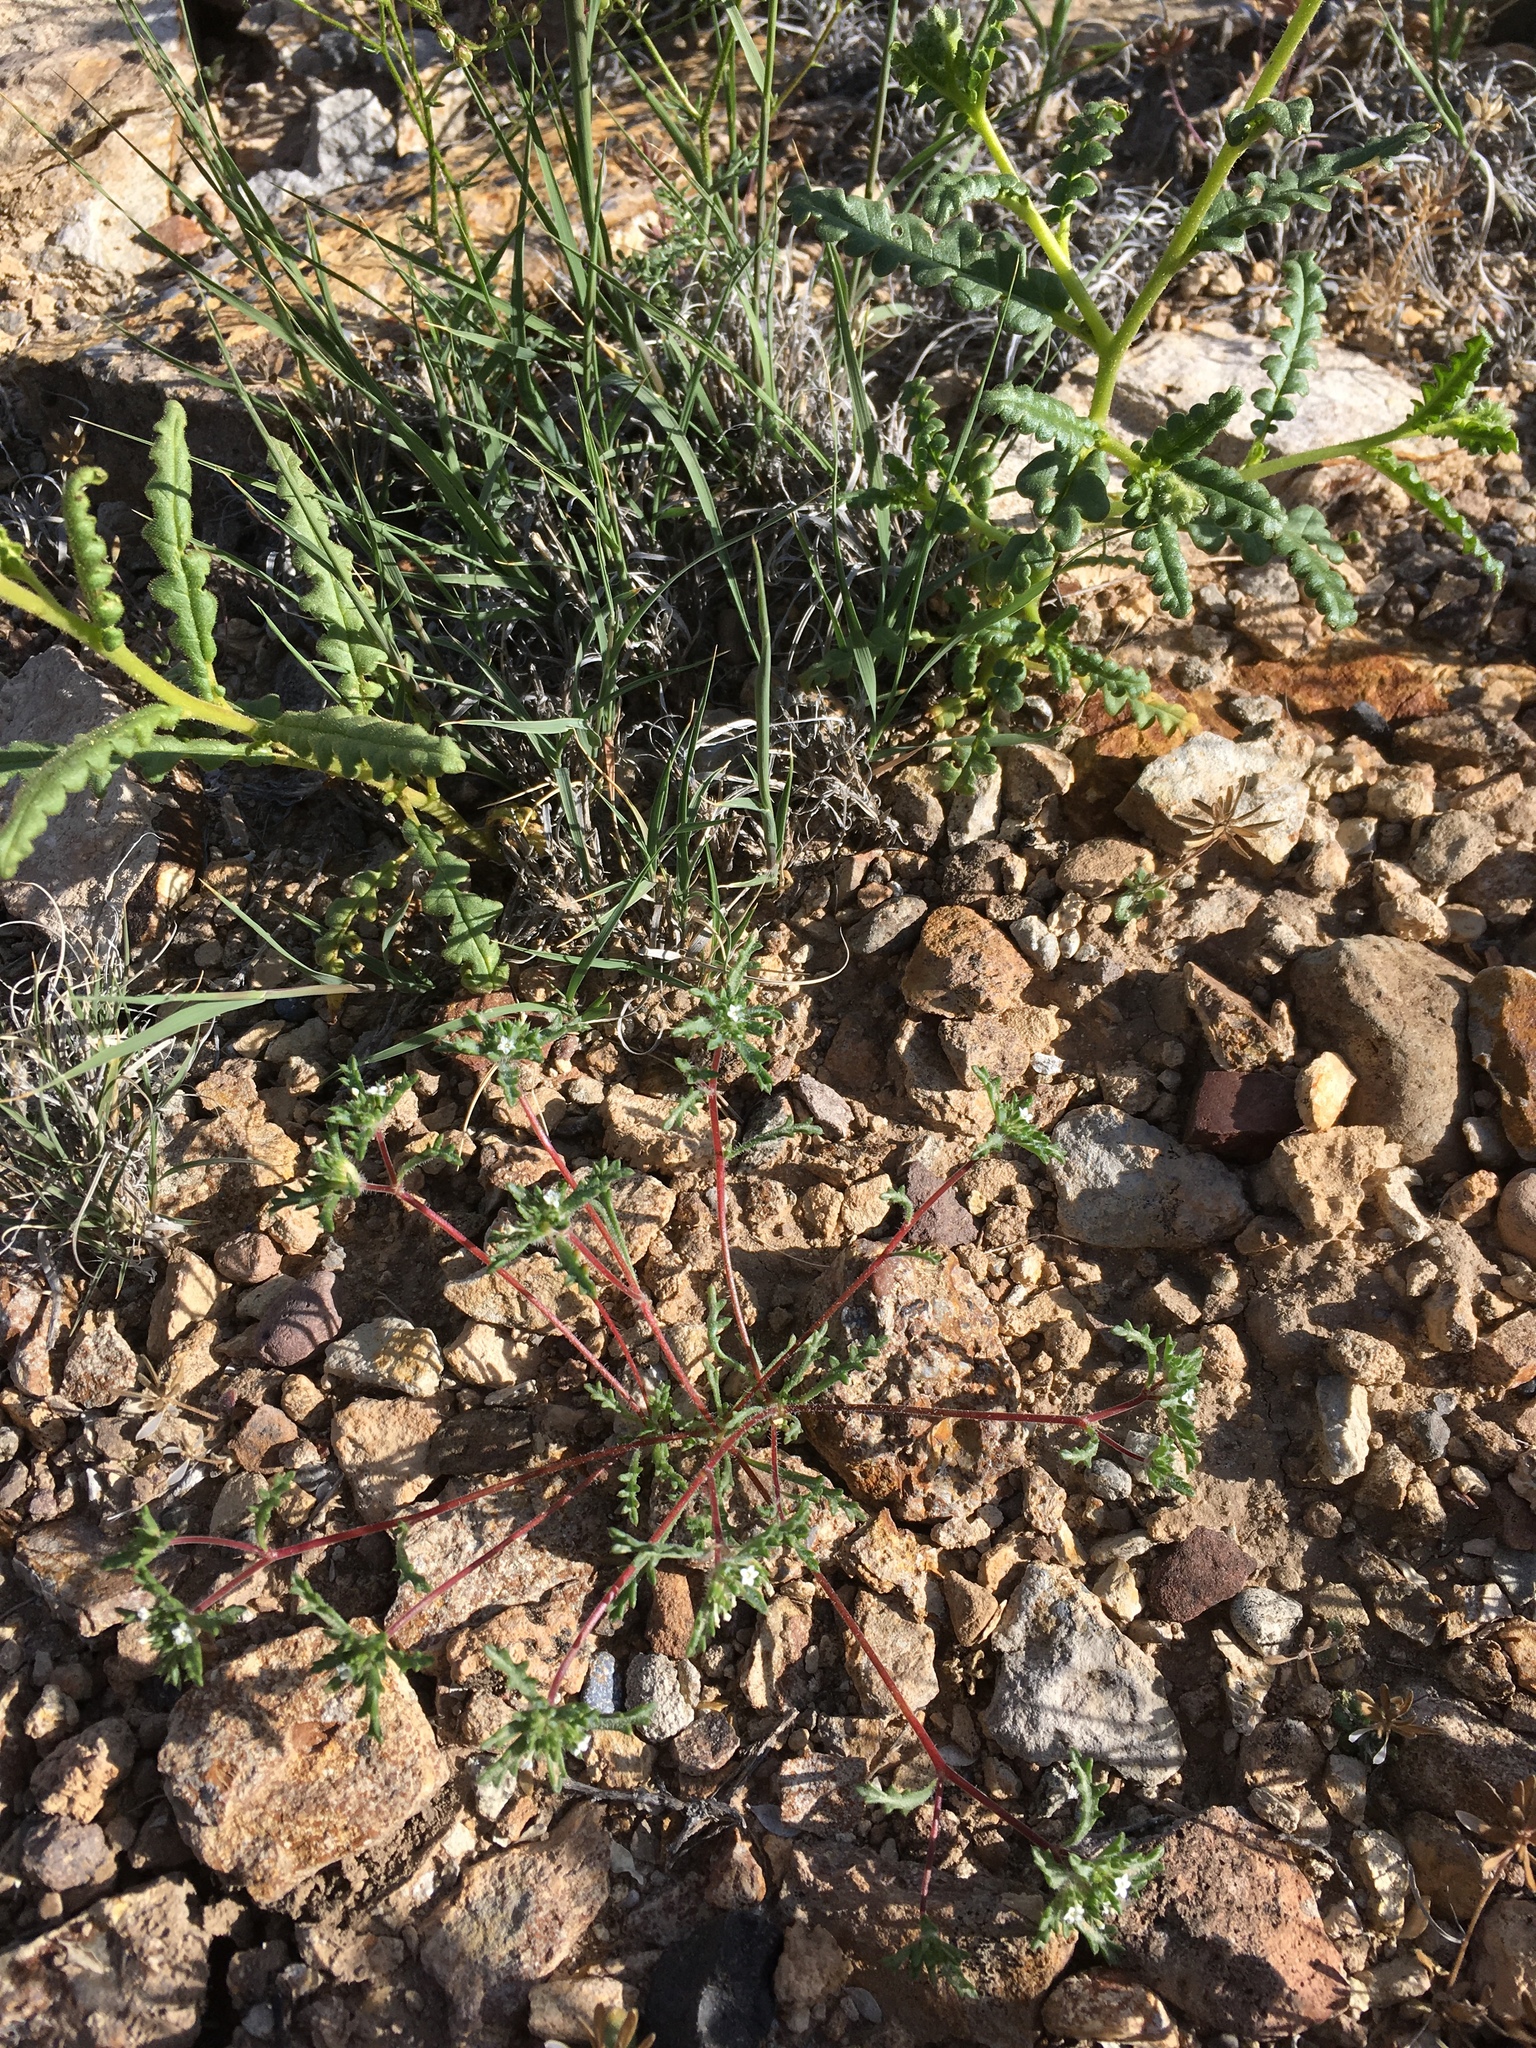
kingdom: Plantae
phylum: Tracheophyta
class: Magnoliopsida
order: Ericales
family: Polemoniaceae
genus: Ipomopsis
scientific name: Ipomopsis polycladon
